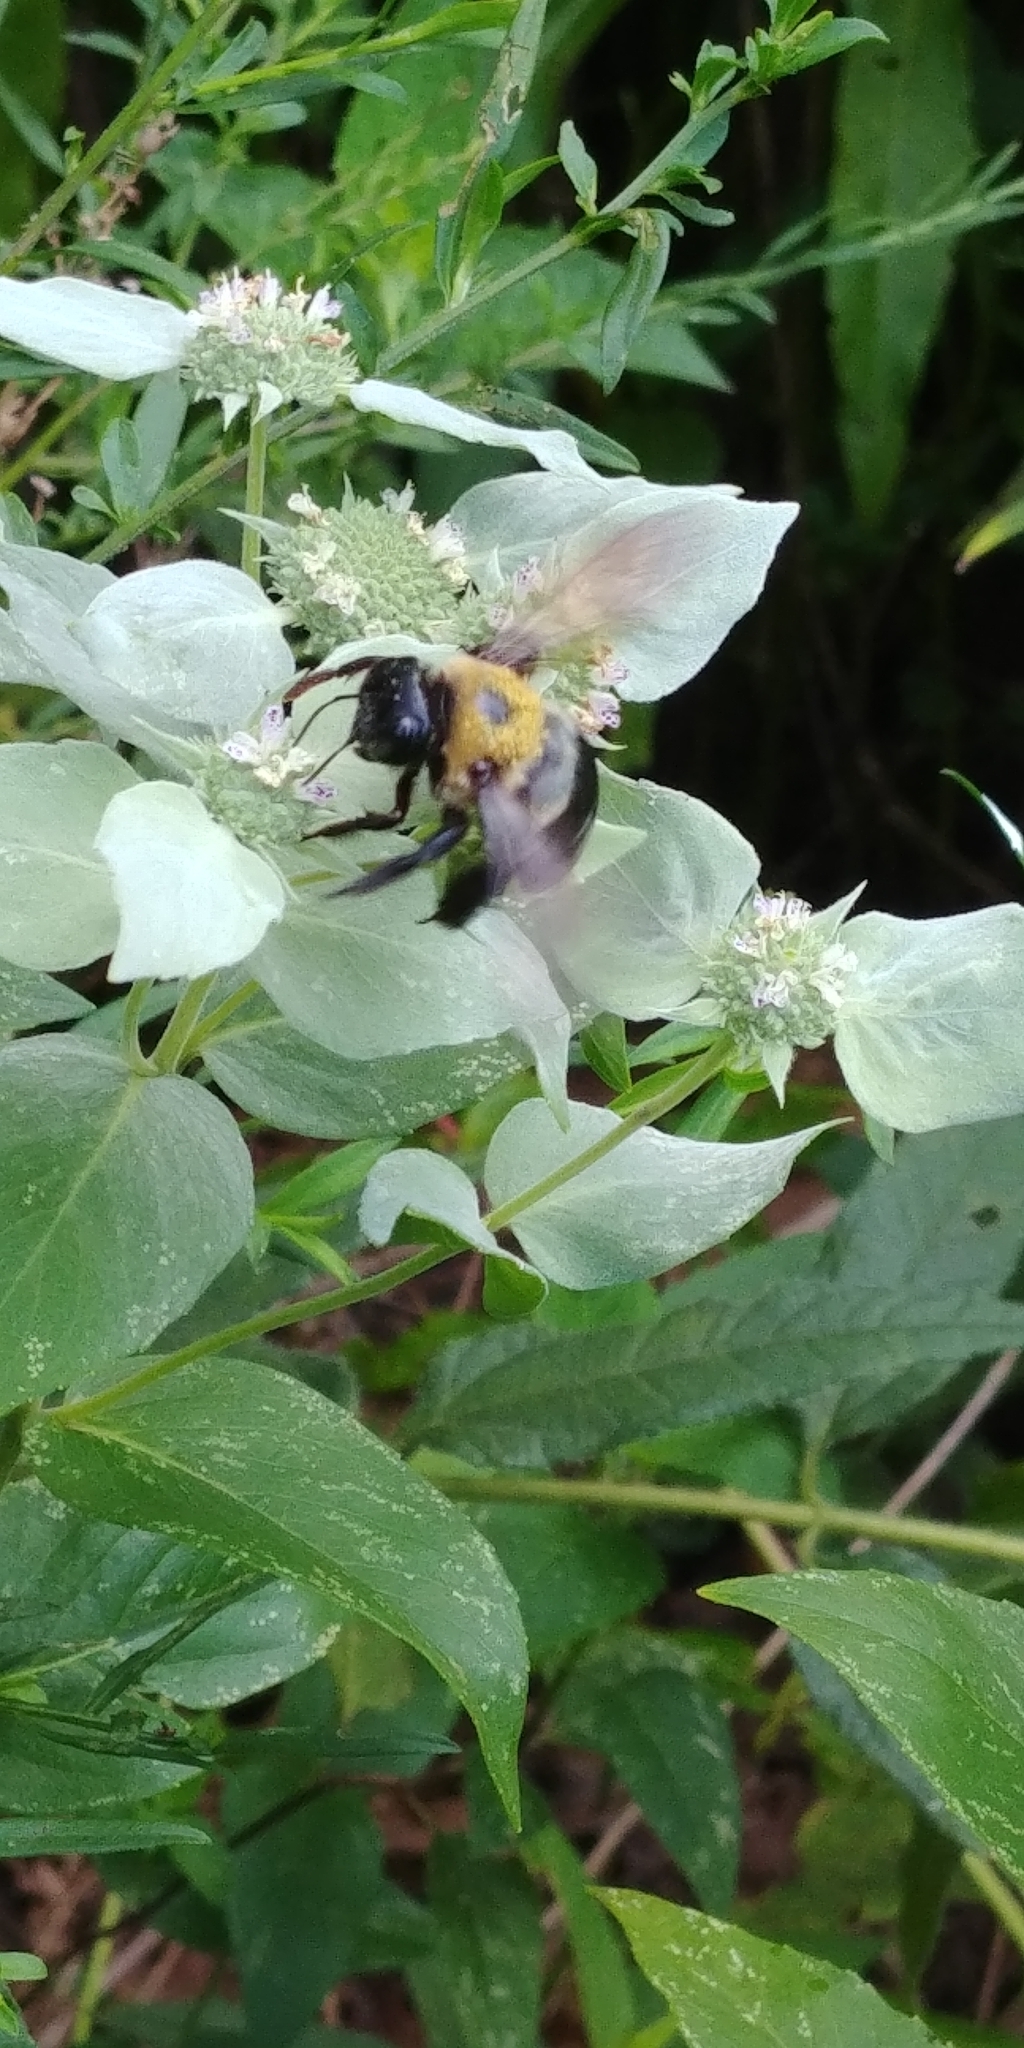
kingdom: Animalia
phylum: Arthropoda
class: Insecta
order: Hymenoptera
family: Apidae
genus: Xylocopa
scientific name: Xylocopa virginica
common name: Carpenter bee
